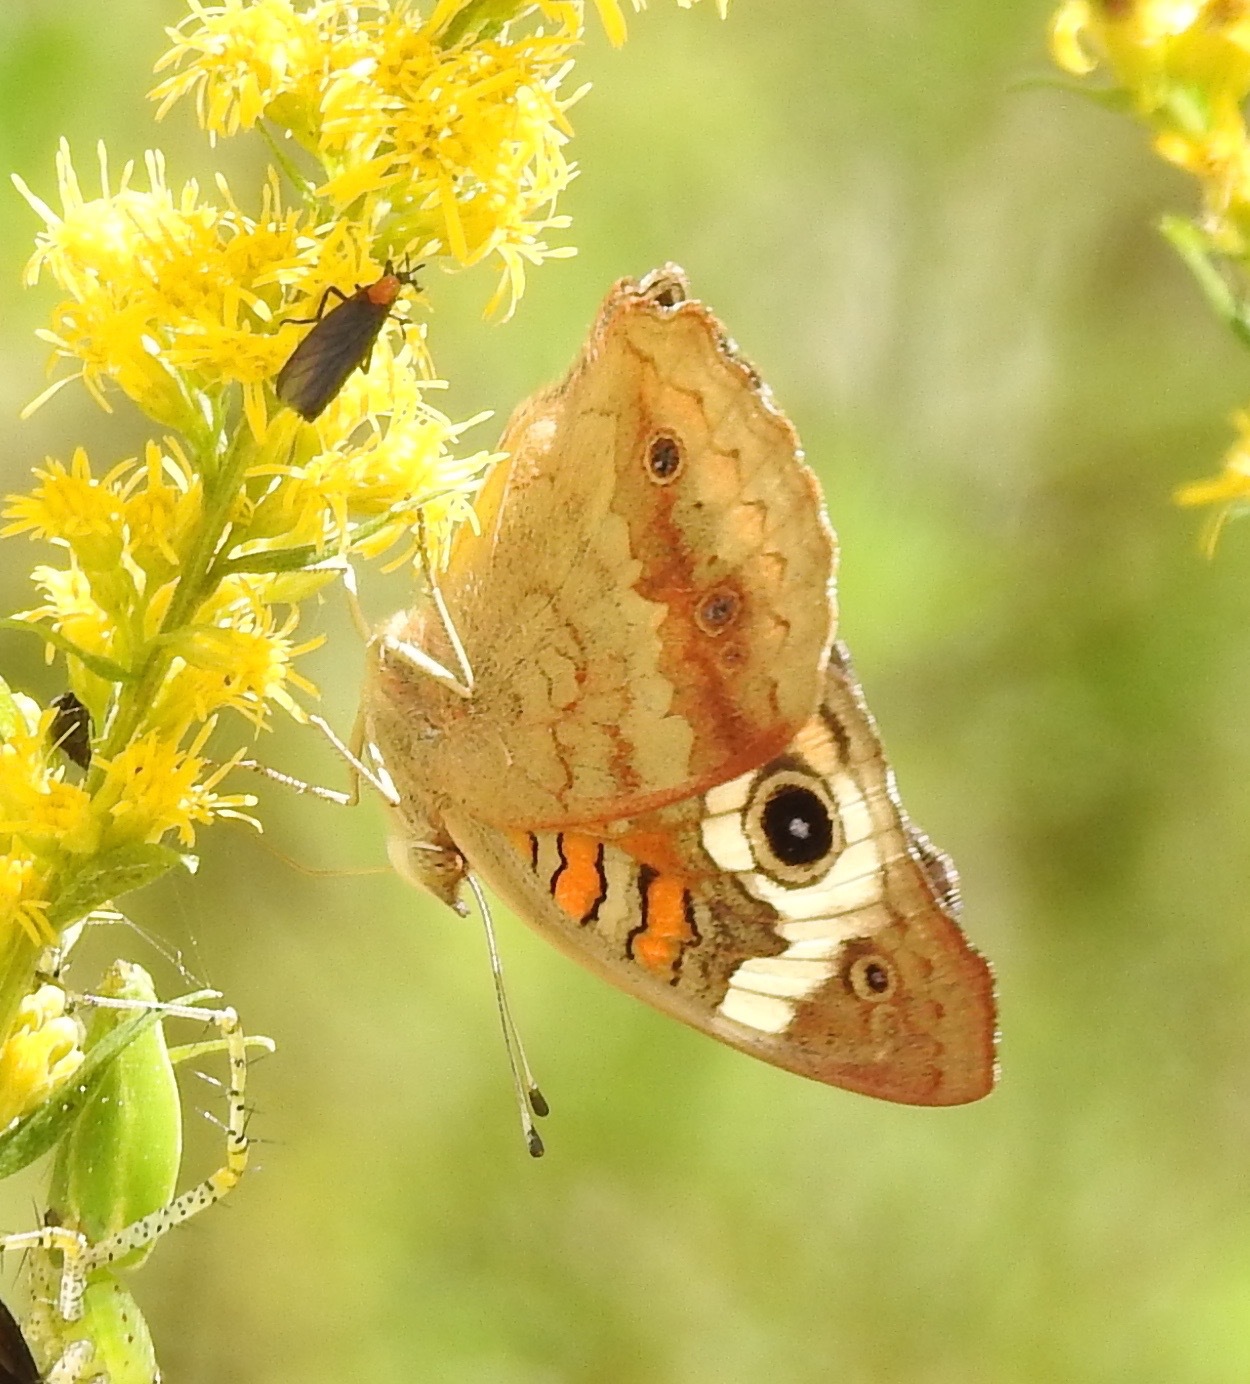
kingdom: Animalia
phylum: Arthropoda
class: Insecta
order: Lepidoptera
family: Nymphalidae
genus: Junonia
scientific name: Junonia coenia
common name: Common buckeye
